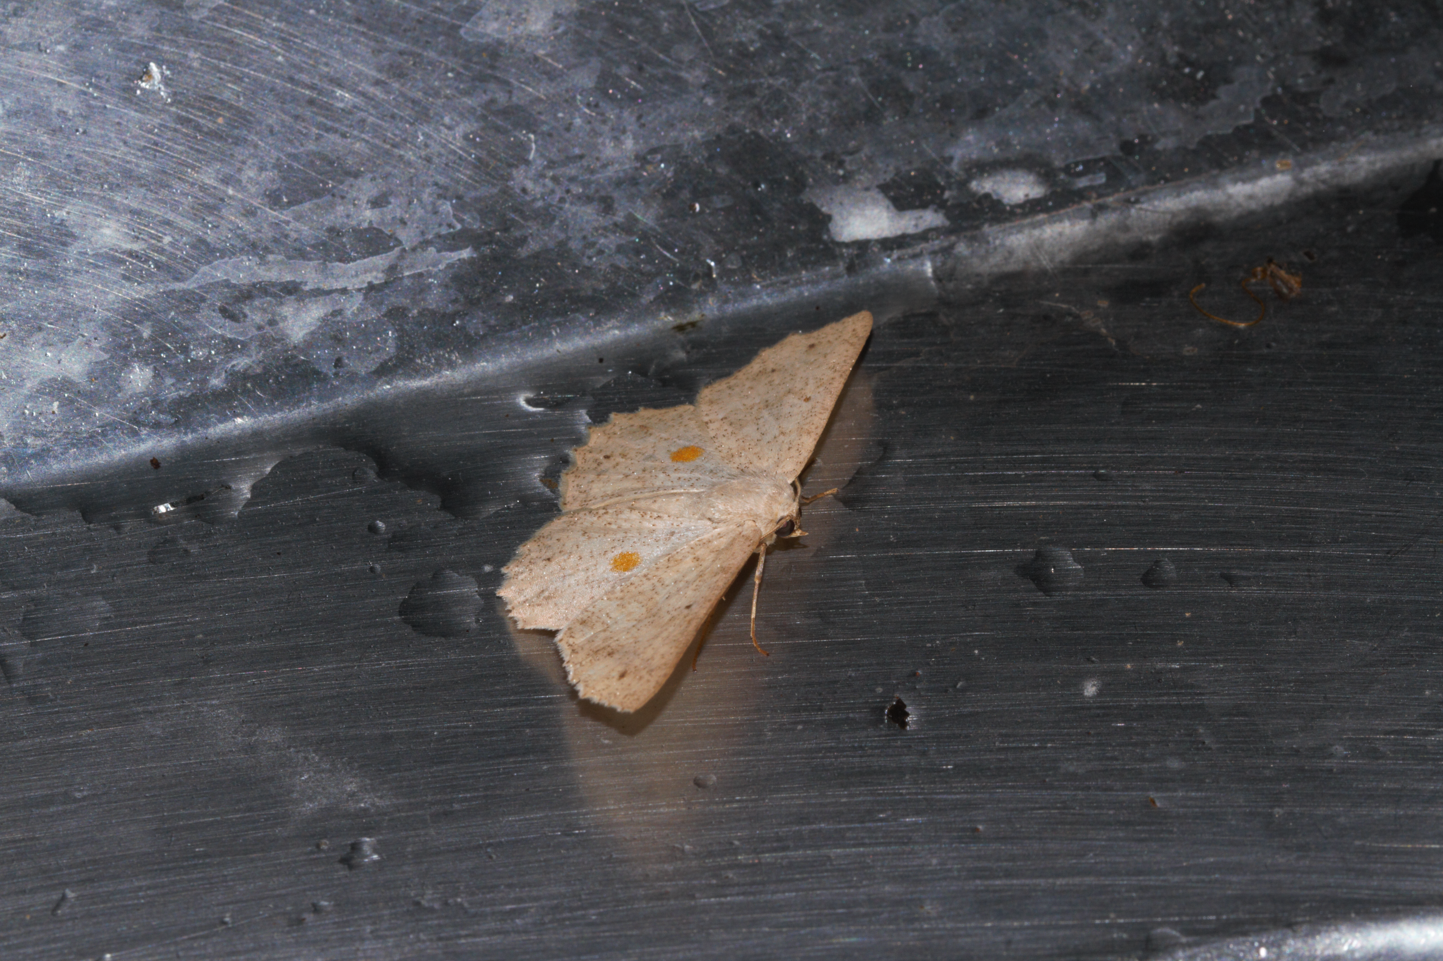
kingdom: Animalia
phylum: Arthropoda
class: Insecta
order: Lepidoptera
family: Geometridae
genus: Isochromodes
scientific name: Isochromodes epioneata
